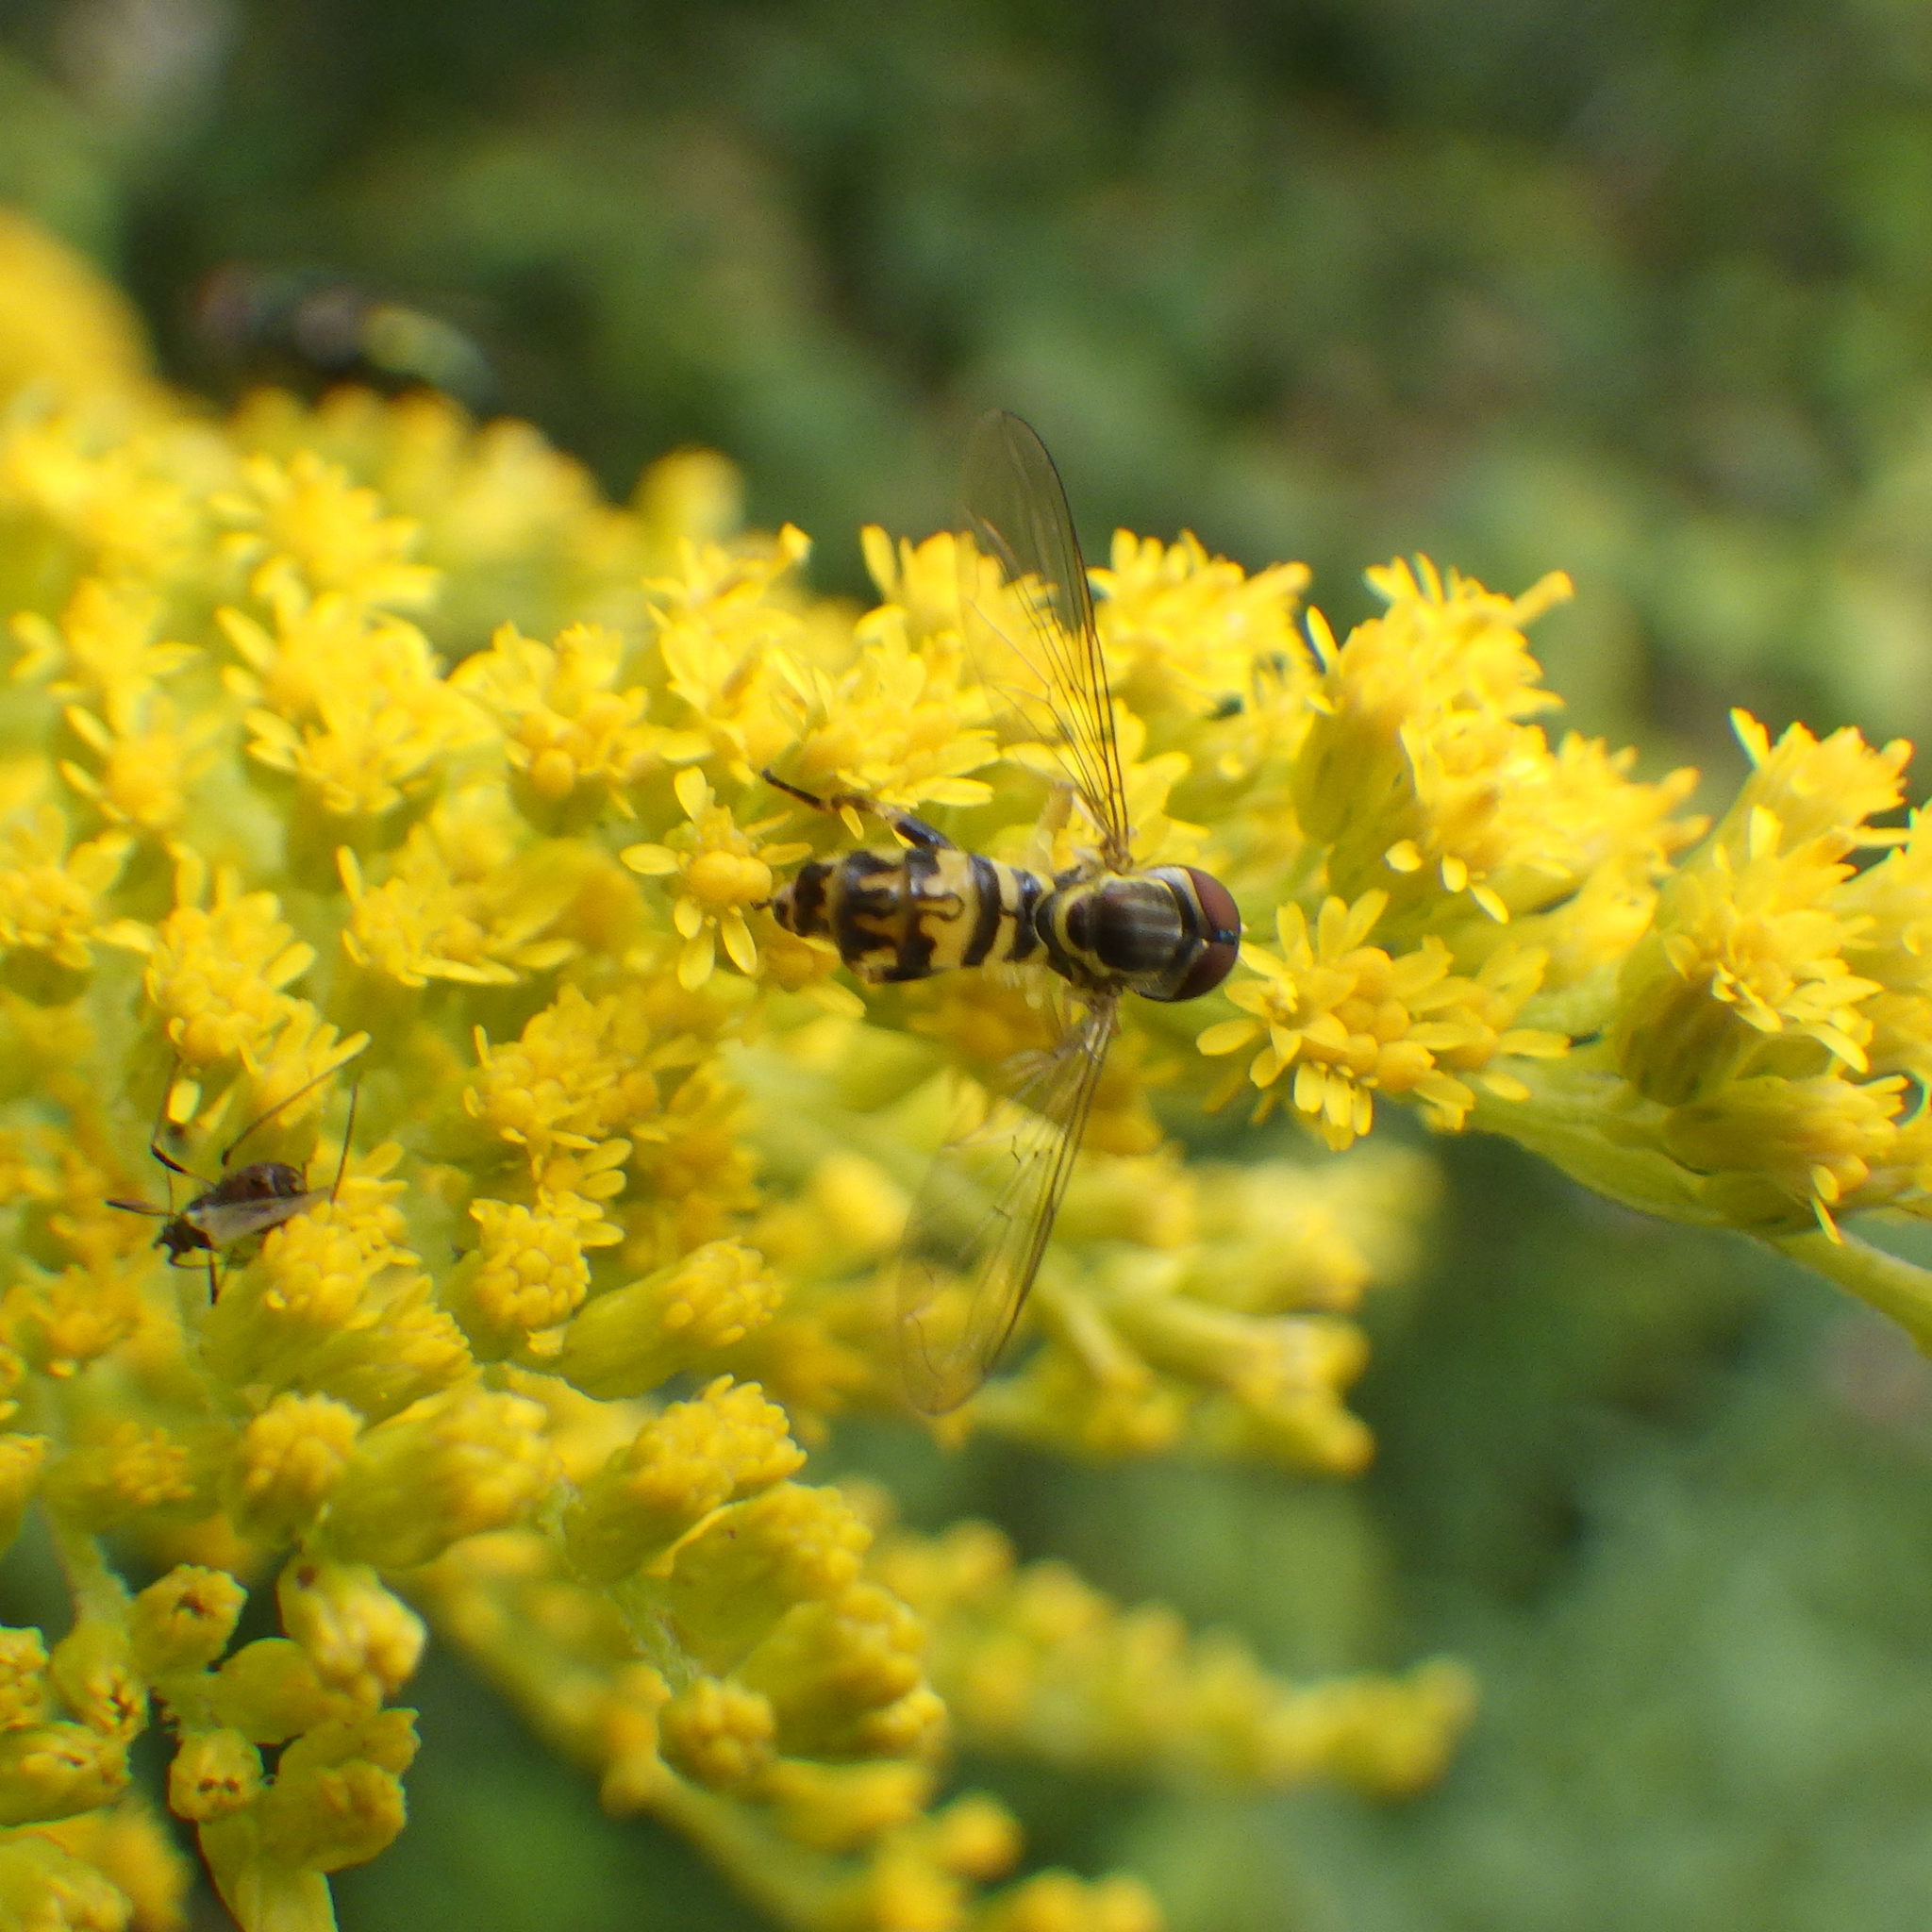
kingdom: Animalia
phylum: Arthropoda
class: Insecta
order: Diptera
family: Syrphidae
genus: Toxomerus
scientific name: Toxomerus geminatus
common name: Eastern calligrapher
